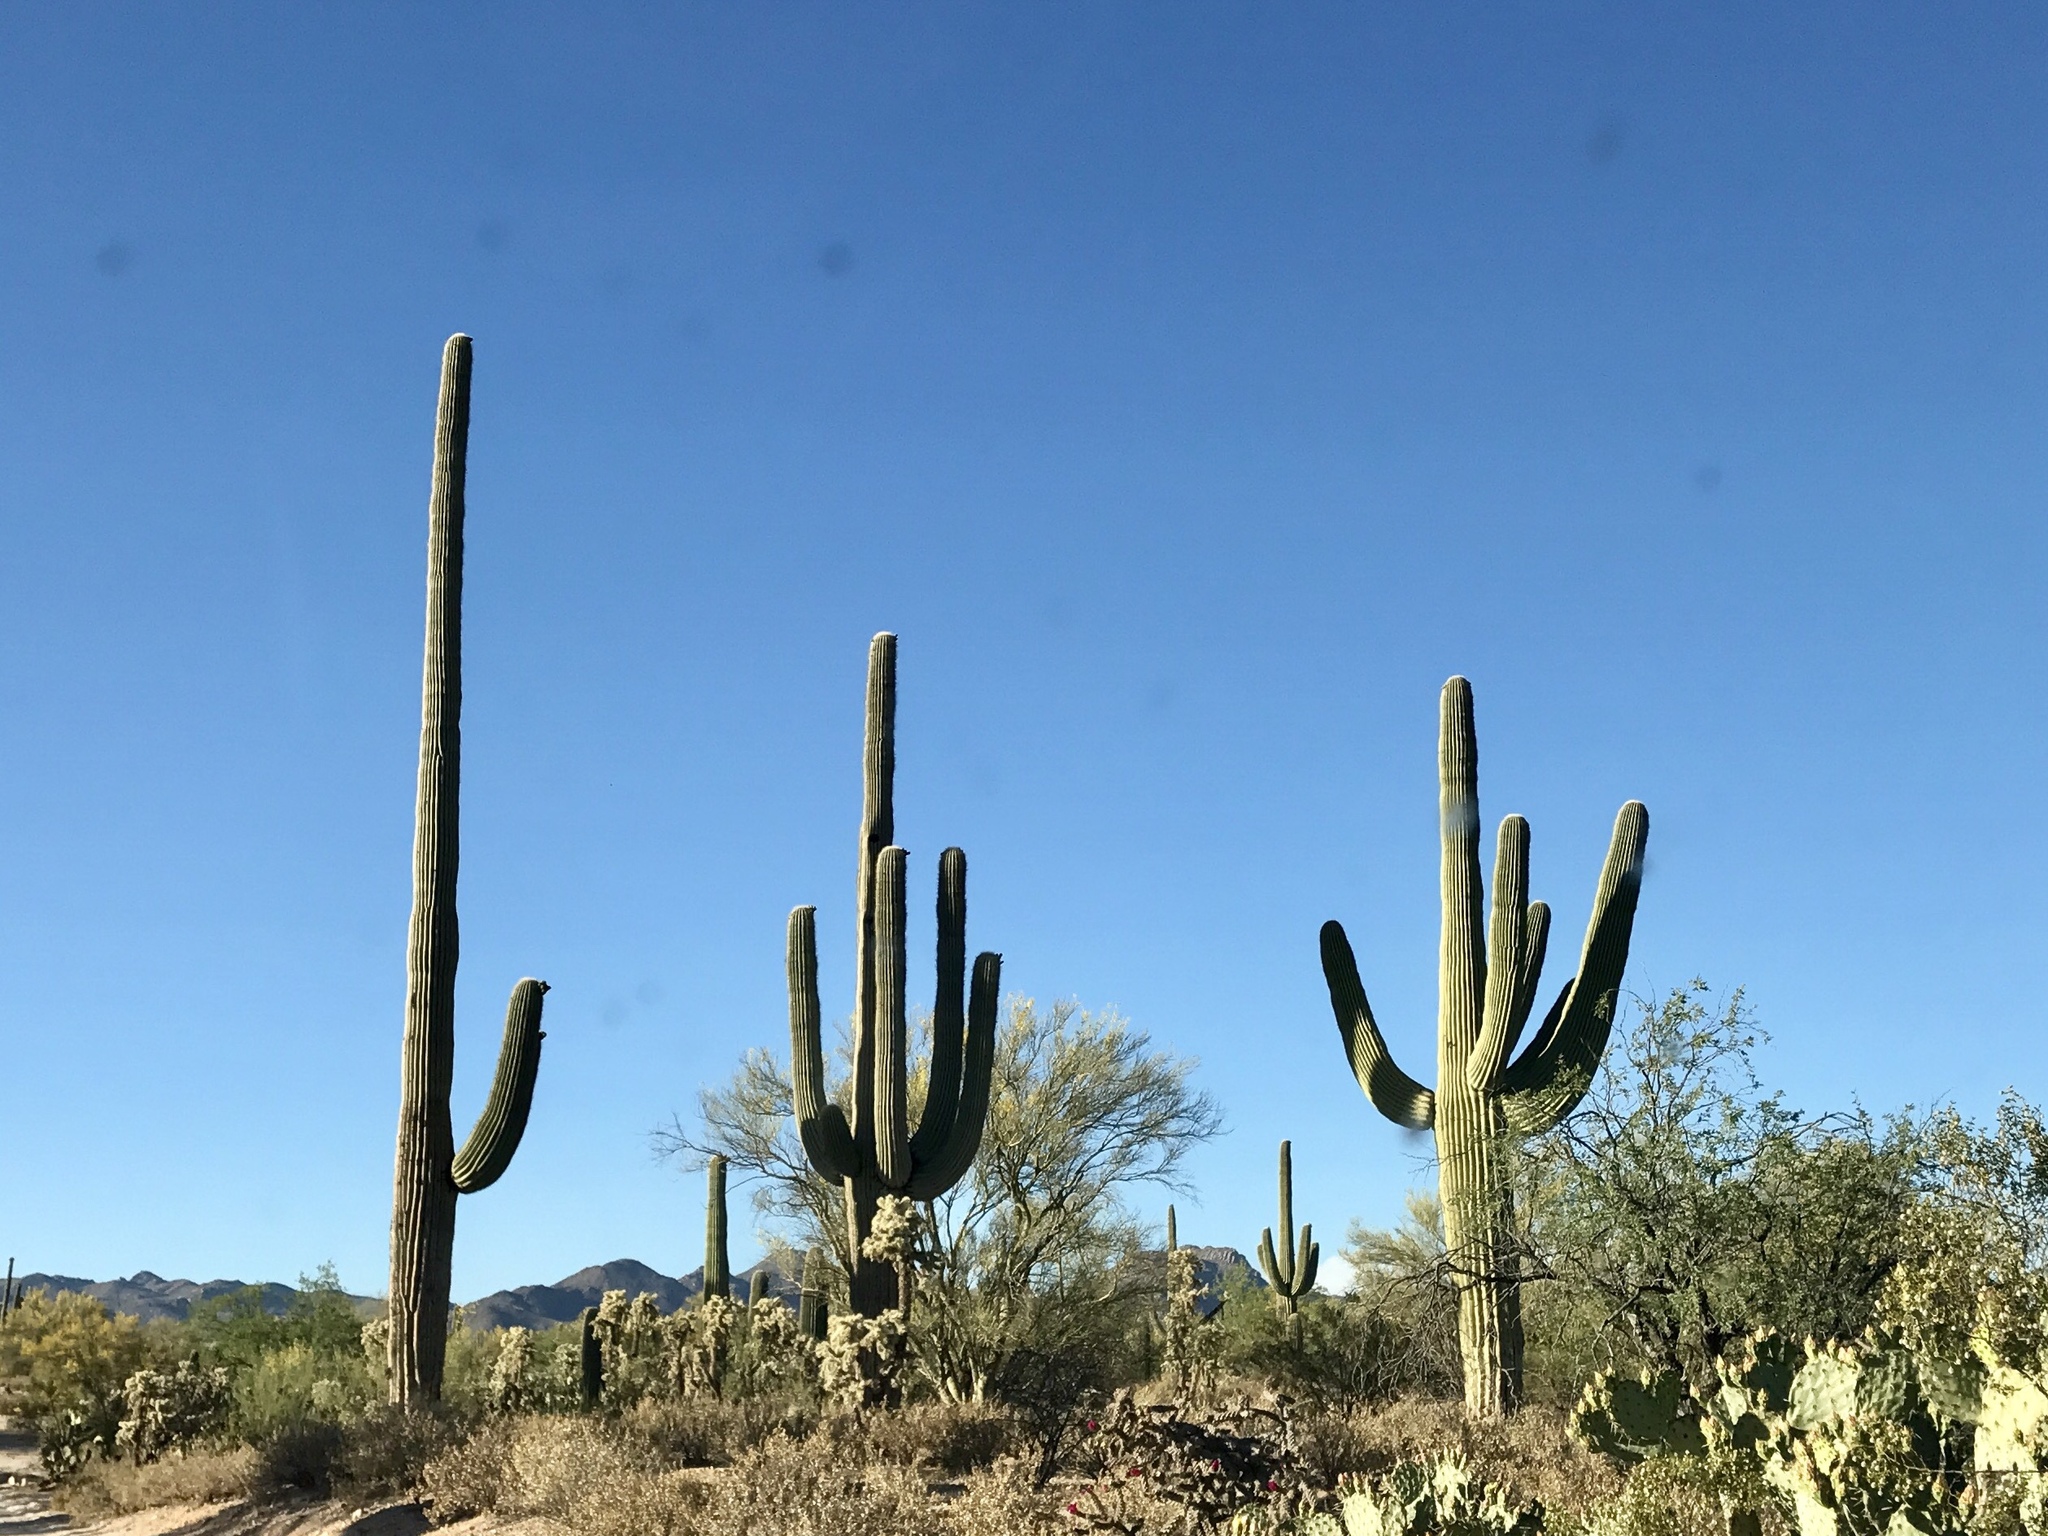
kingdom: Plantae
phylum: Tracheophyta
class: Magnoliopsida
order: Caryophyllales
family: Cactaceae
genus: Carnegiea
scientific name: Carnegiea gigantea
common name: Saguaro
